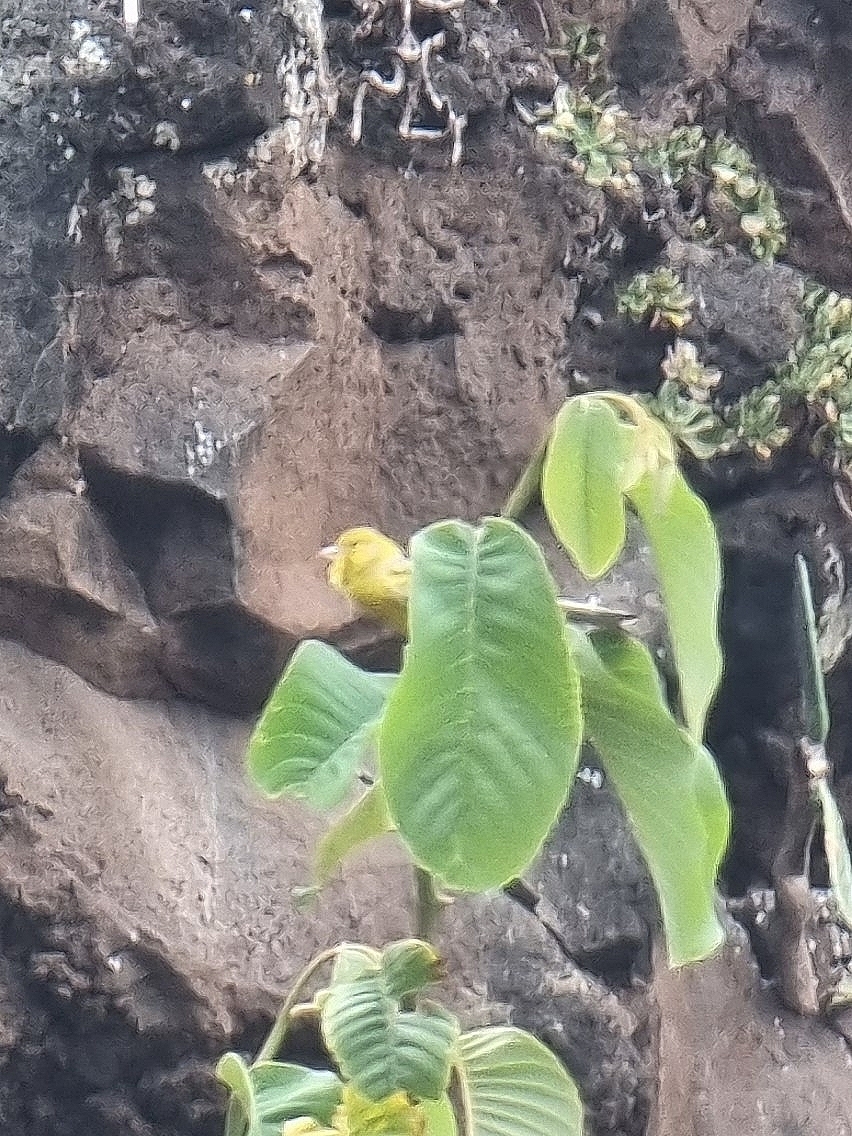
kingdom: Animalia
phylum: Chordata
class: Aves
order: Passeriformes
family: Fringillidae
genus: Serinus
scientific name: Serinus canaria
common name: Atlantic canary
